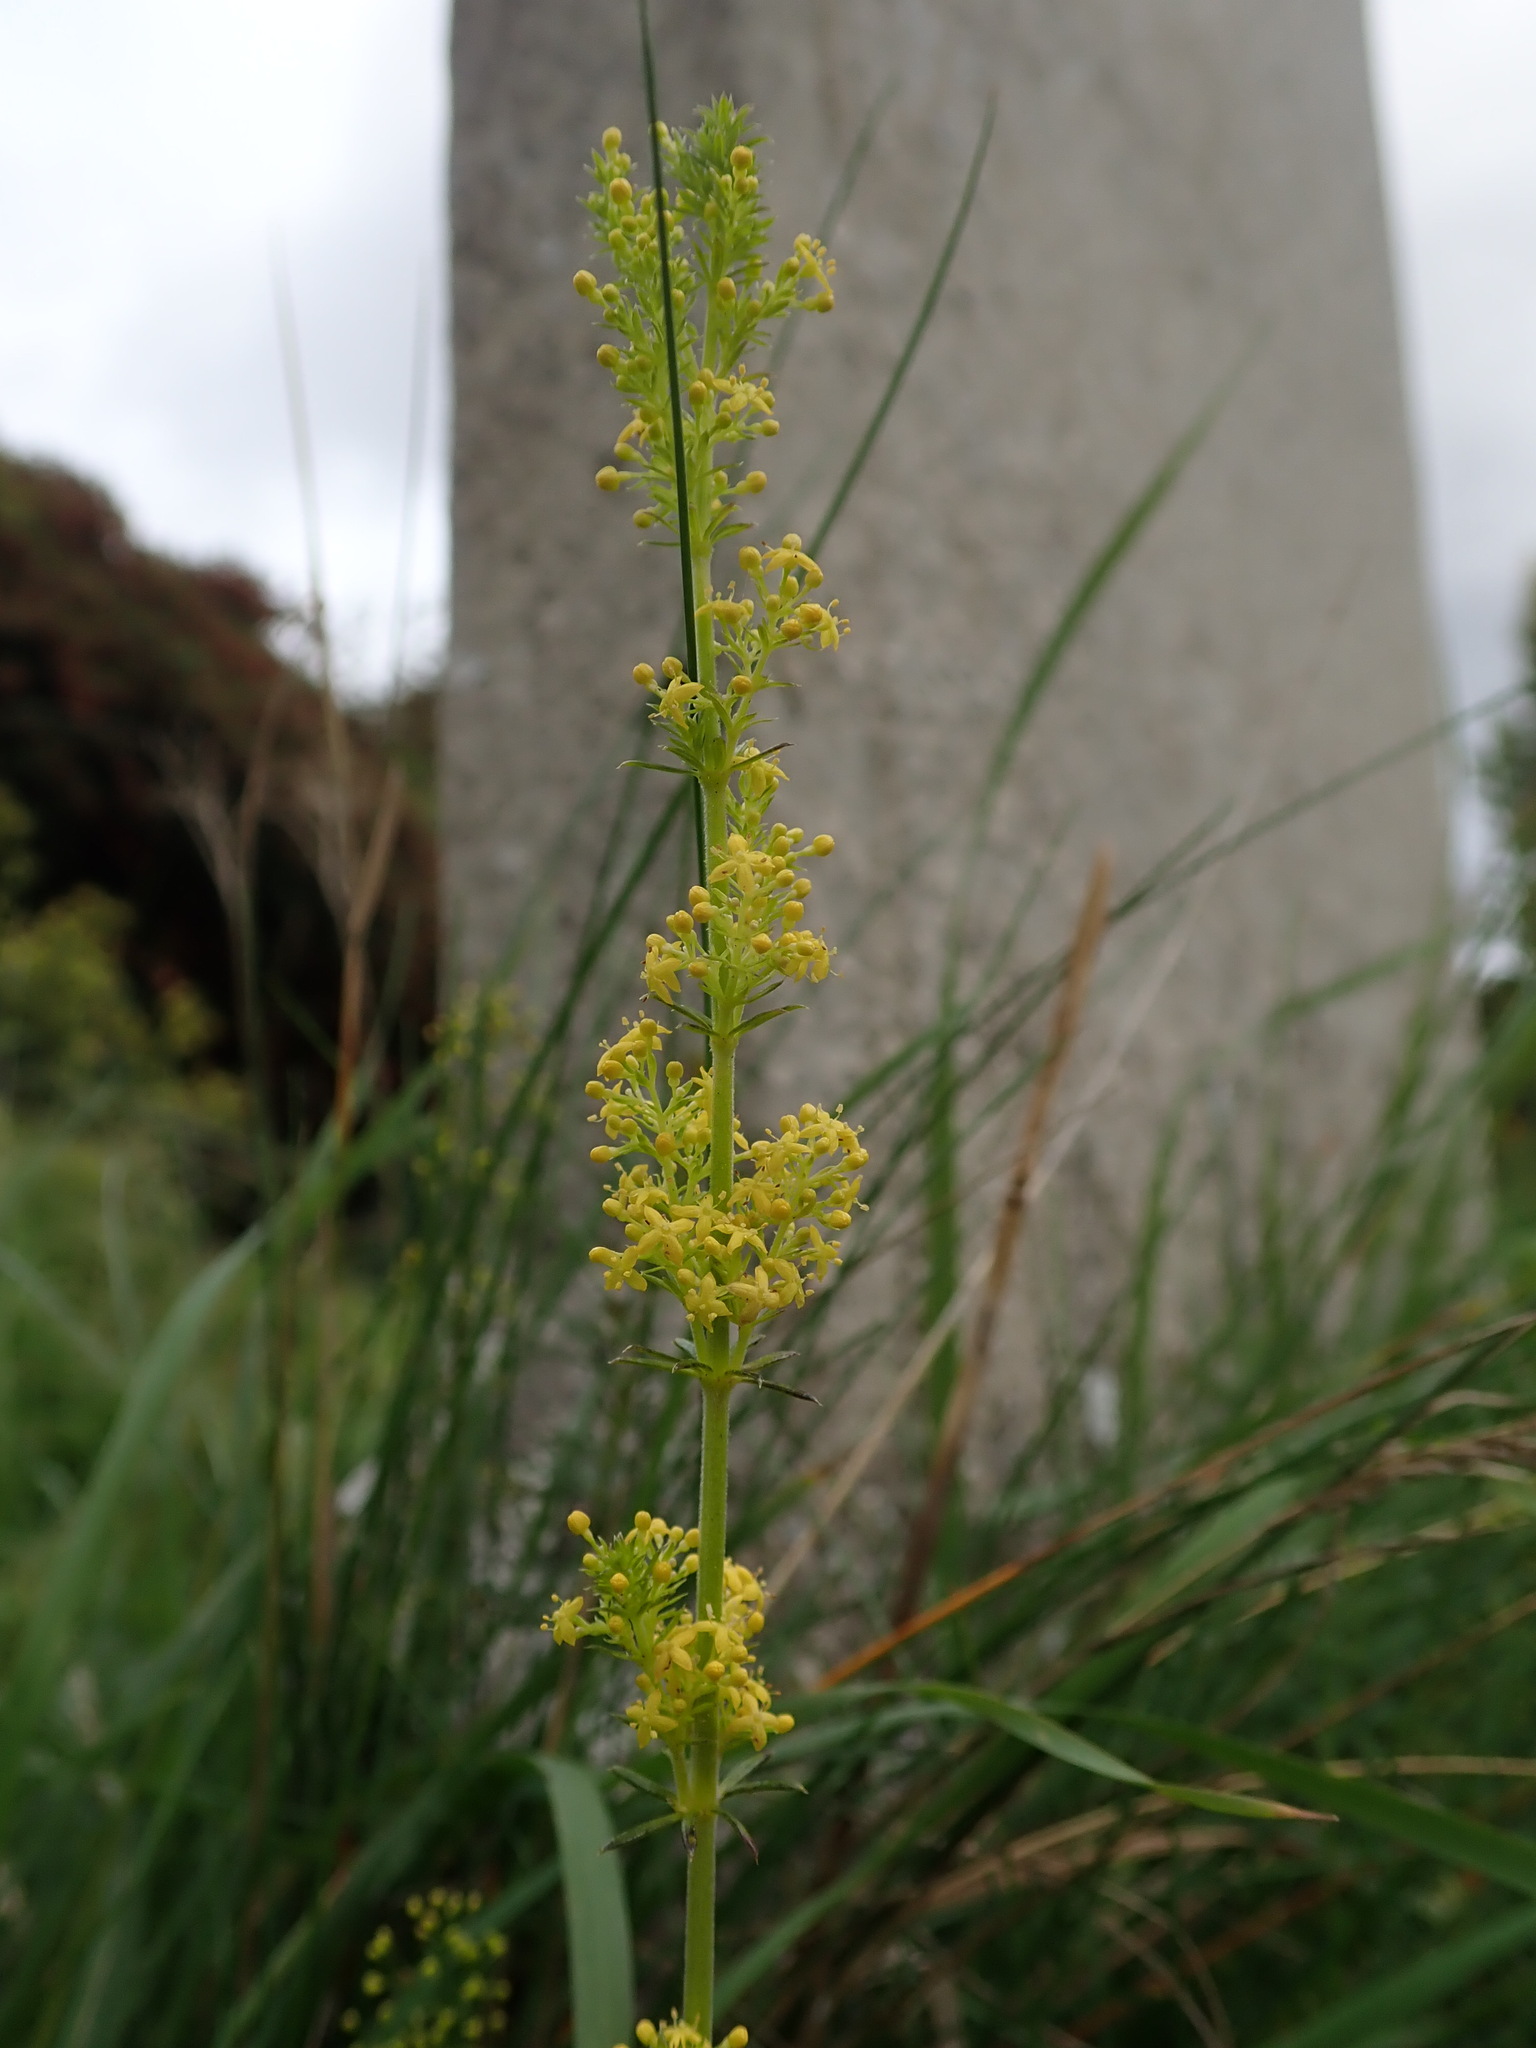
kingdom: Plantae
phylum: Tracheophyta
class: Magnoliopsida
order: Gentianales
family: Rubiaceae
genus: Galium
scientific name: Galium verum
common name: Lady's bedstraw
